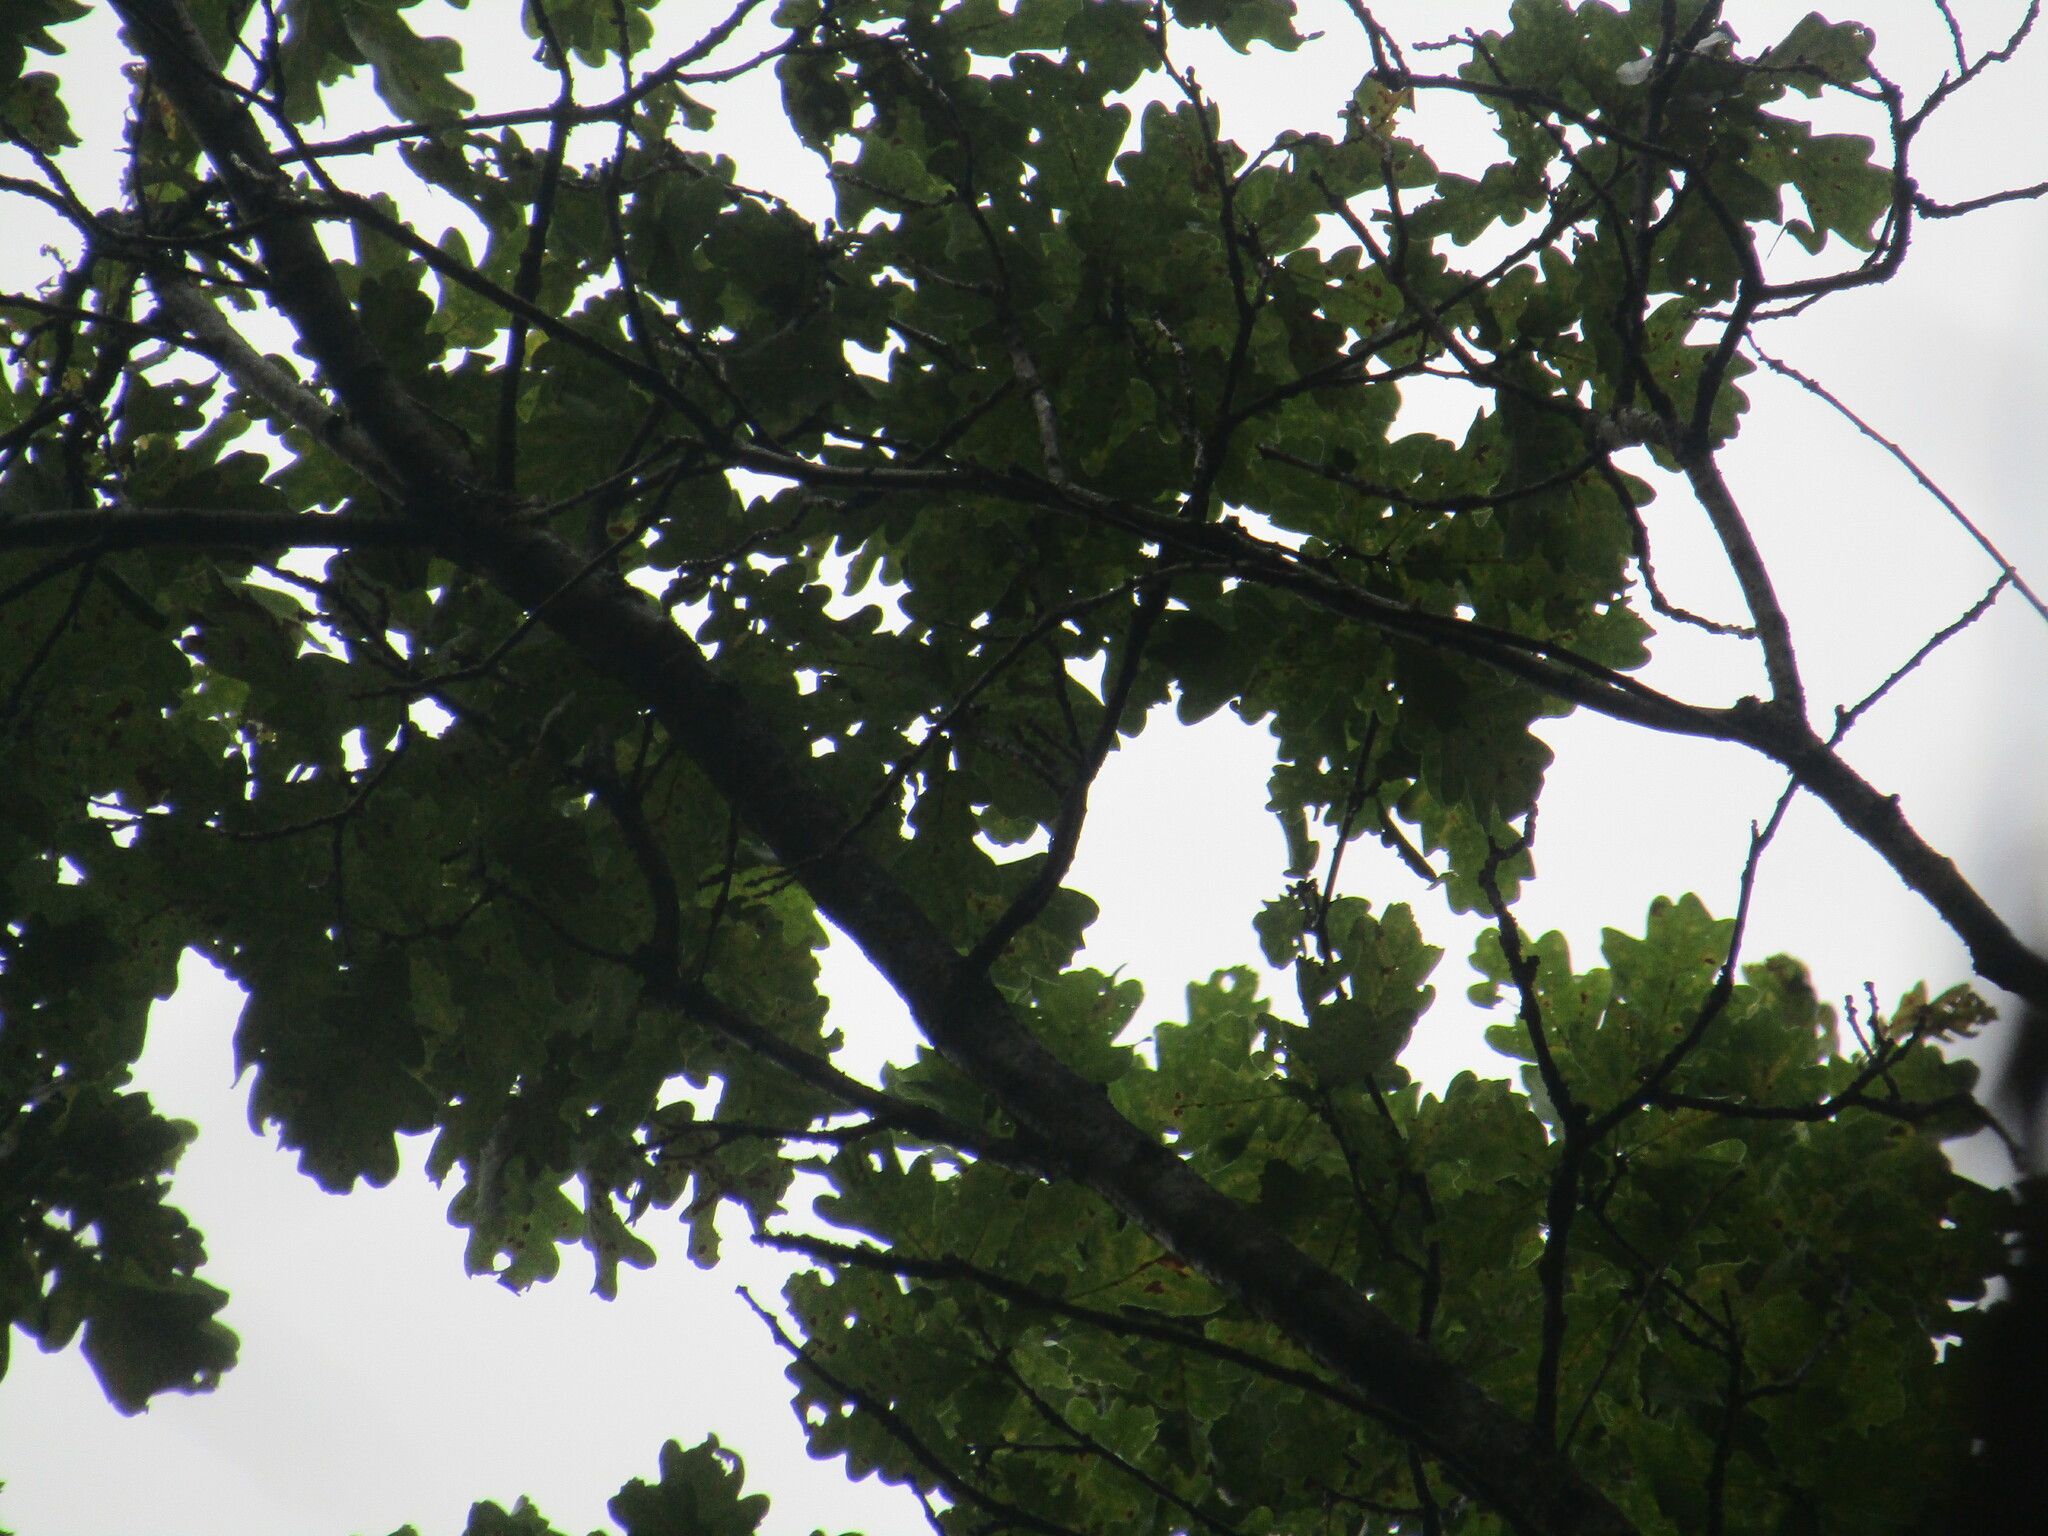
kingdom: Plantae
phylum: Tracheophyta
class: Magnoliopsida
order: Fagales
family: Fagaceae
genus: Quercus
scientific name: Quercus robur
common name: Pedunculate oak
